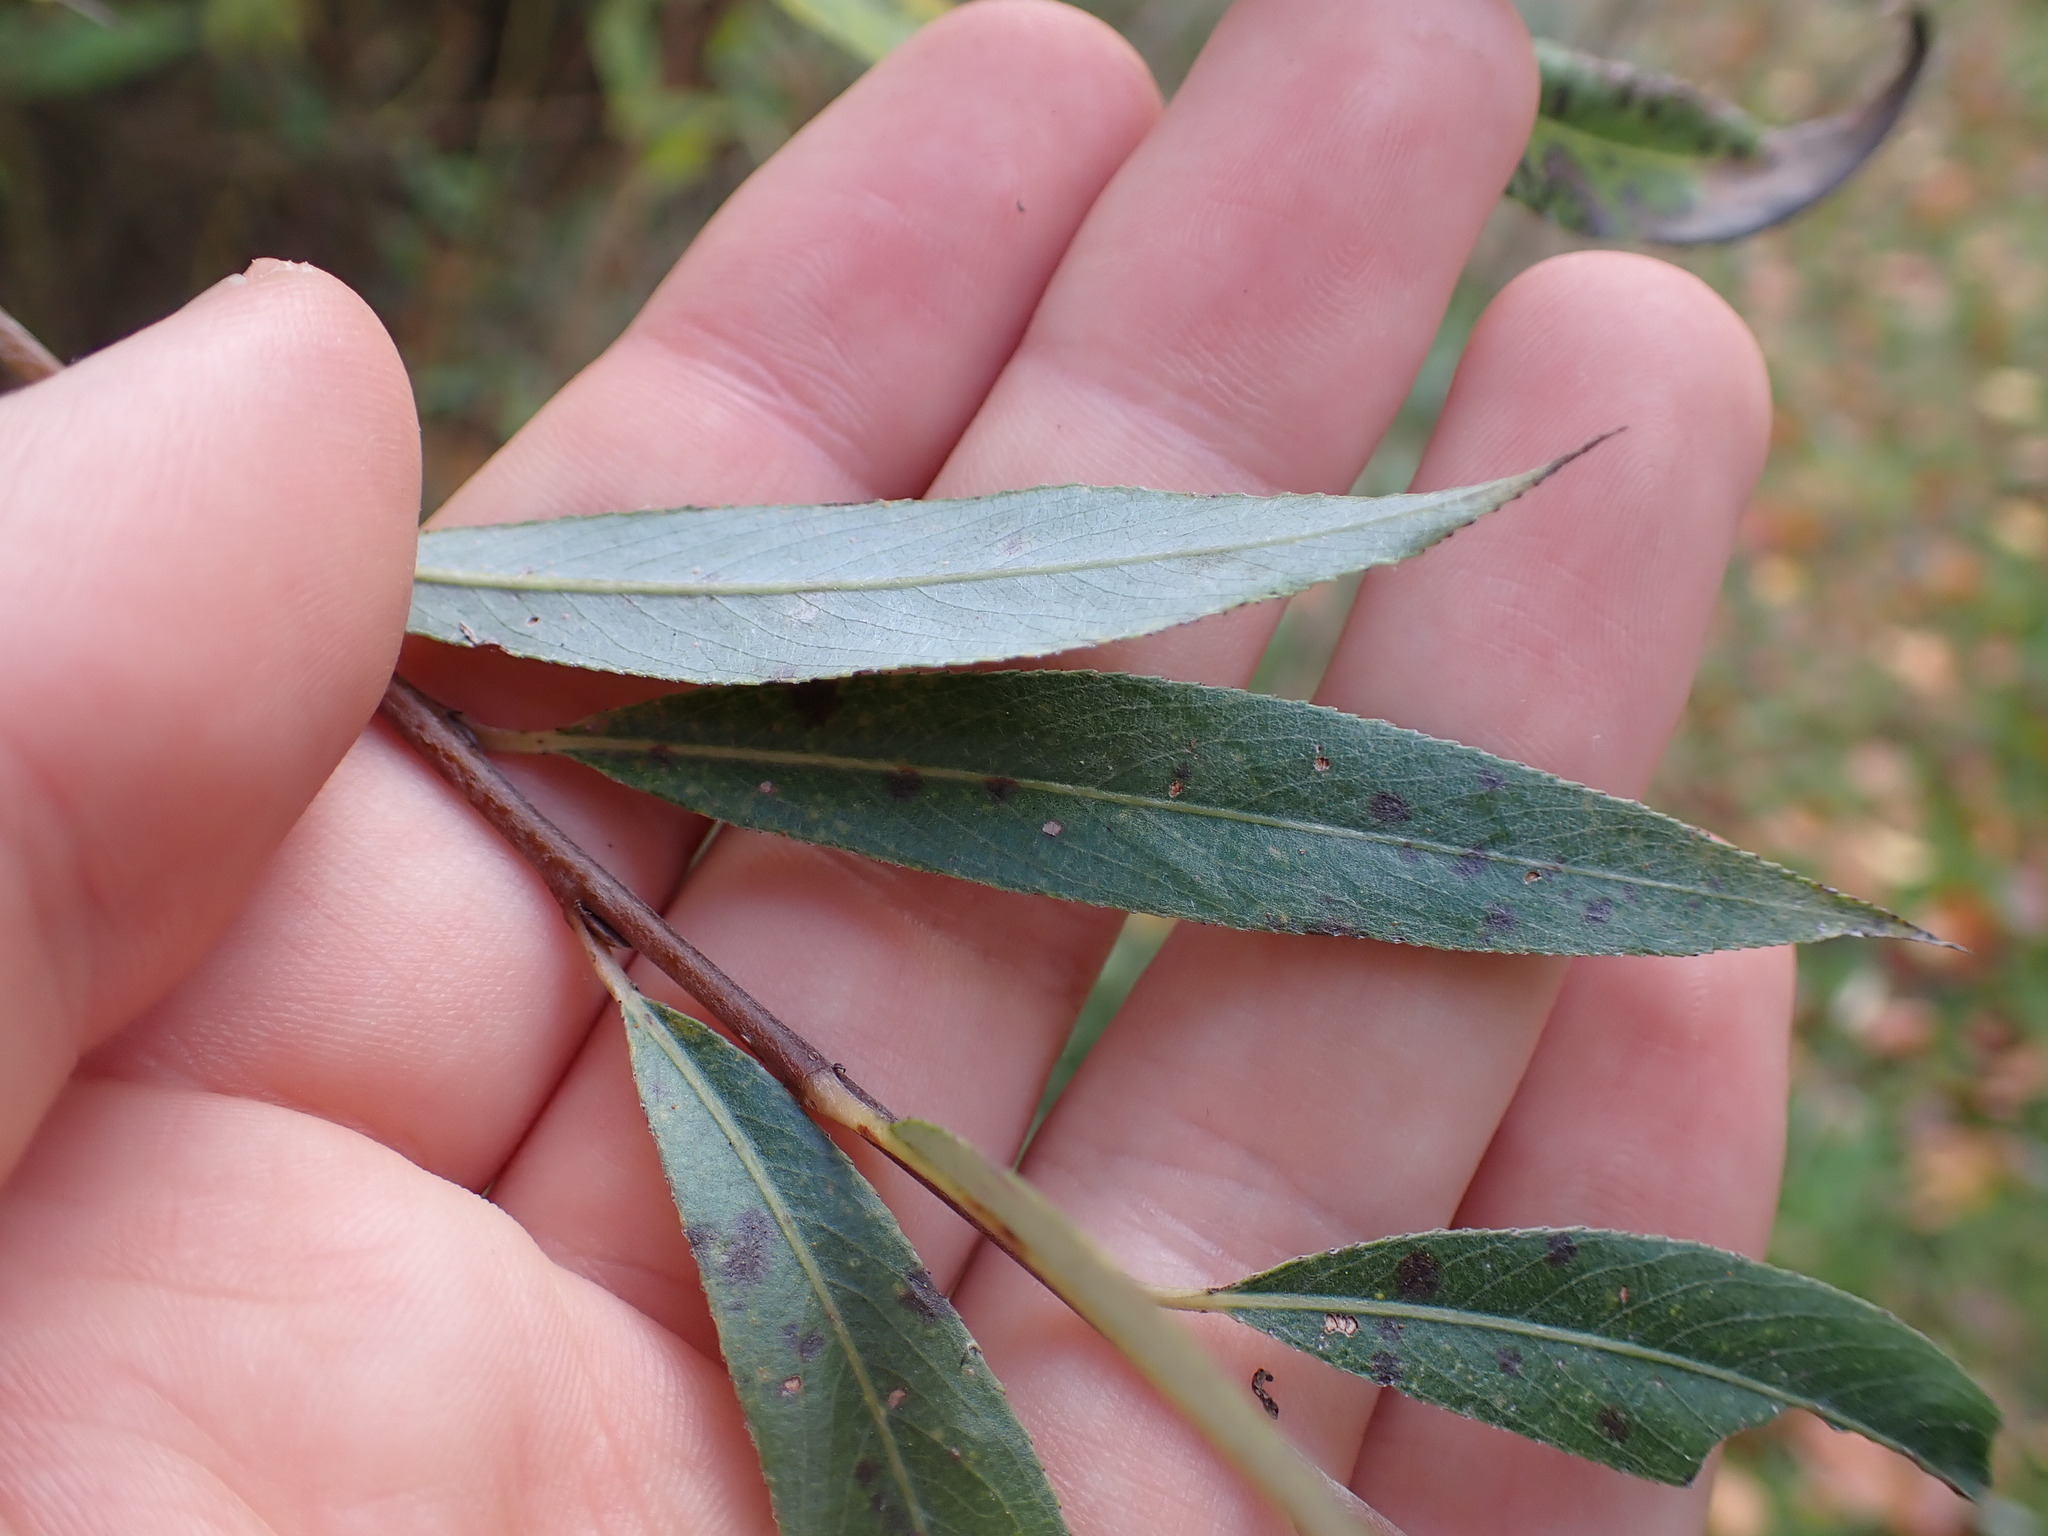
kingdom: Plantae
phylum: Tracheophyta
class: Magnoliopsida
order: Malpighiales
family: Salicaceae
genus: Salix
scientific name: Salix alba
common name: White willow
